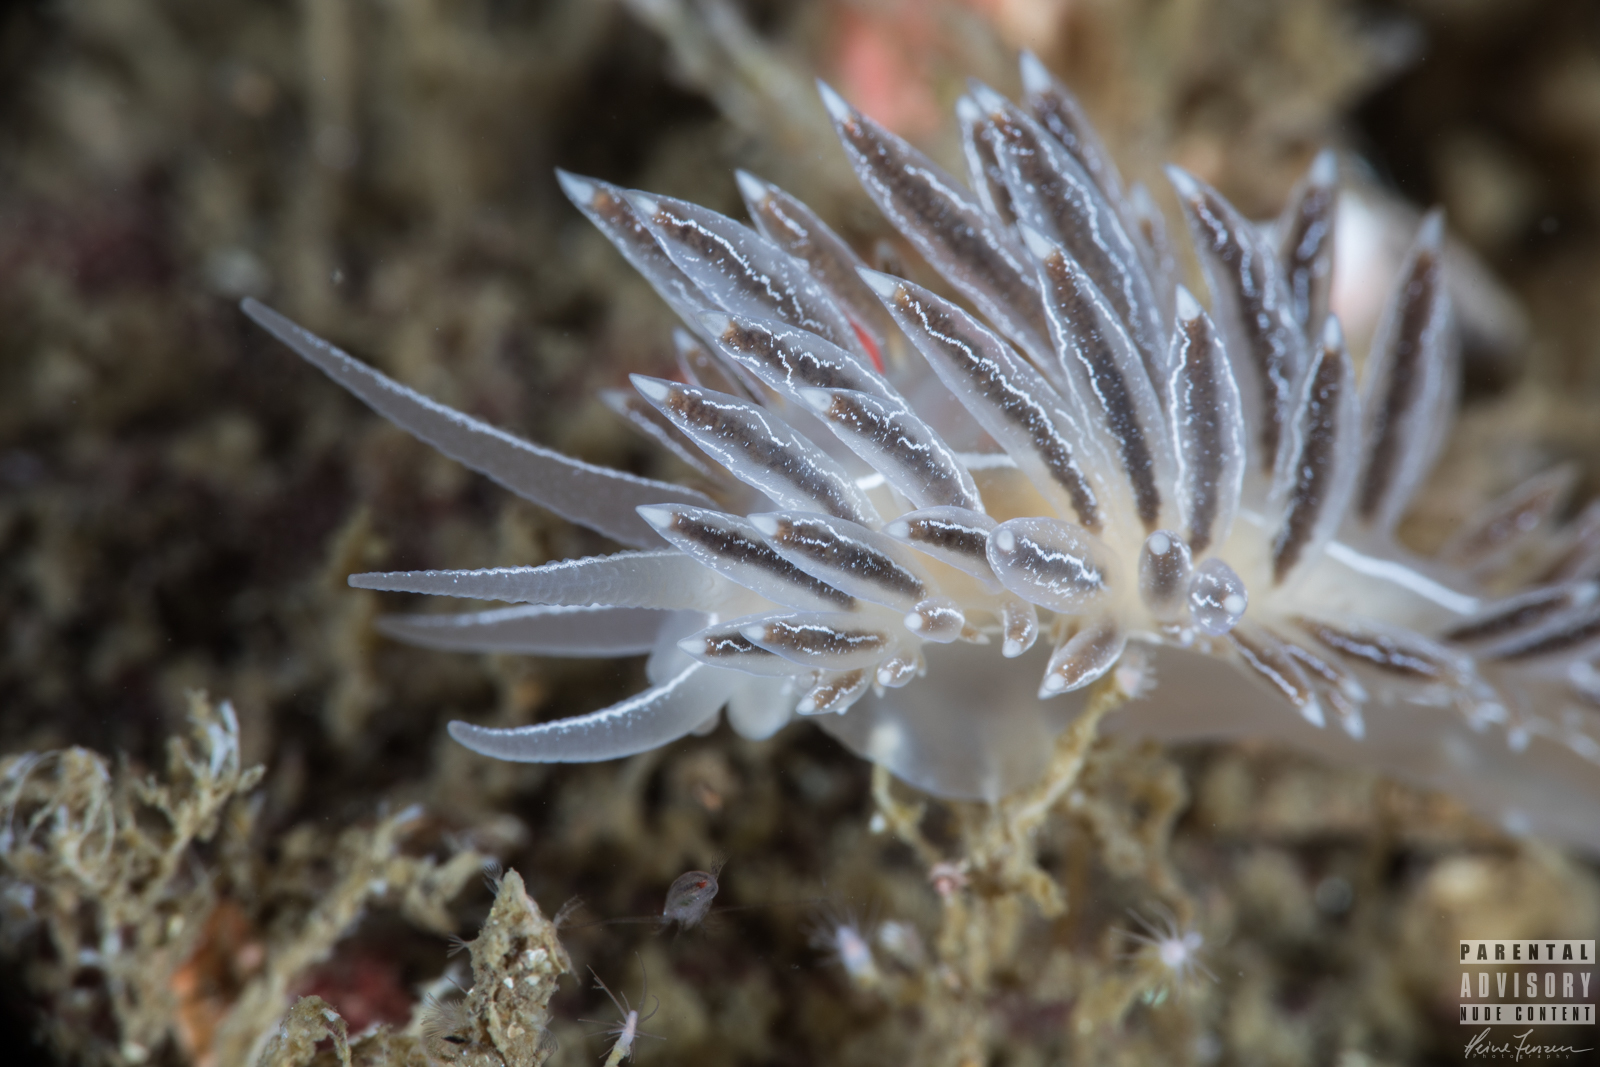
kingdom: Animalia
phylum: Mollusca
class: Gastropoda
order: Nudibranchia
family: Coryphellidae
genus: Coryphella
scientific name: Coryphella chriskaugei
